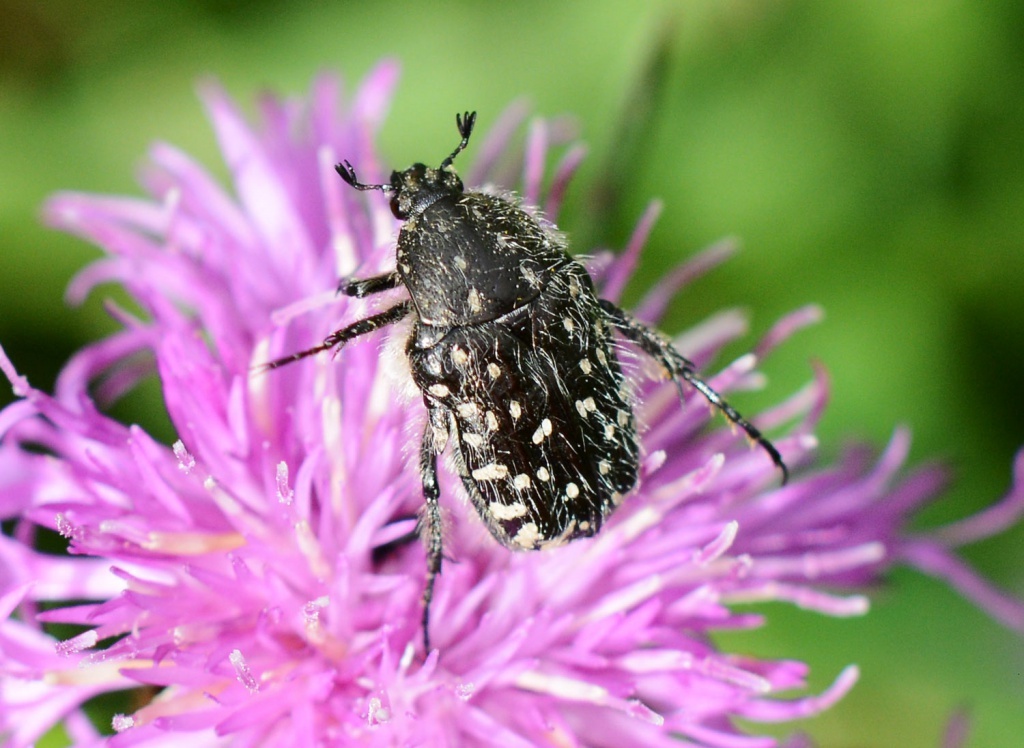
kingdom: Animalia
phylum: Arthropoda
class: Insecta
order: Coleoptera
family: Scarabaeidae
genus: Oxythyrea
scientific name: Oxythyrea funesta
